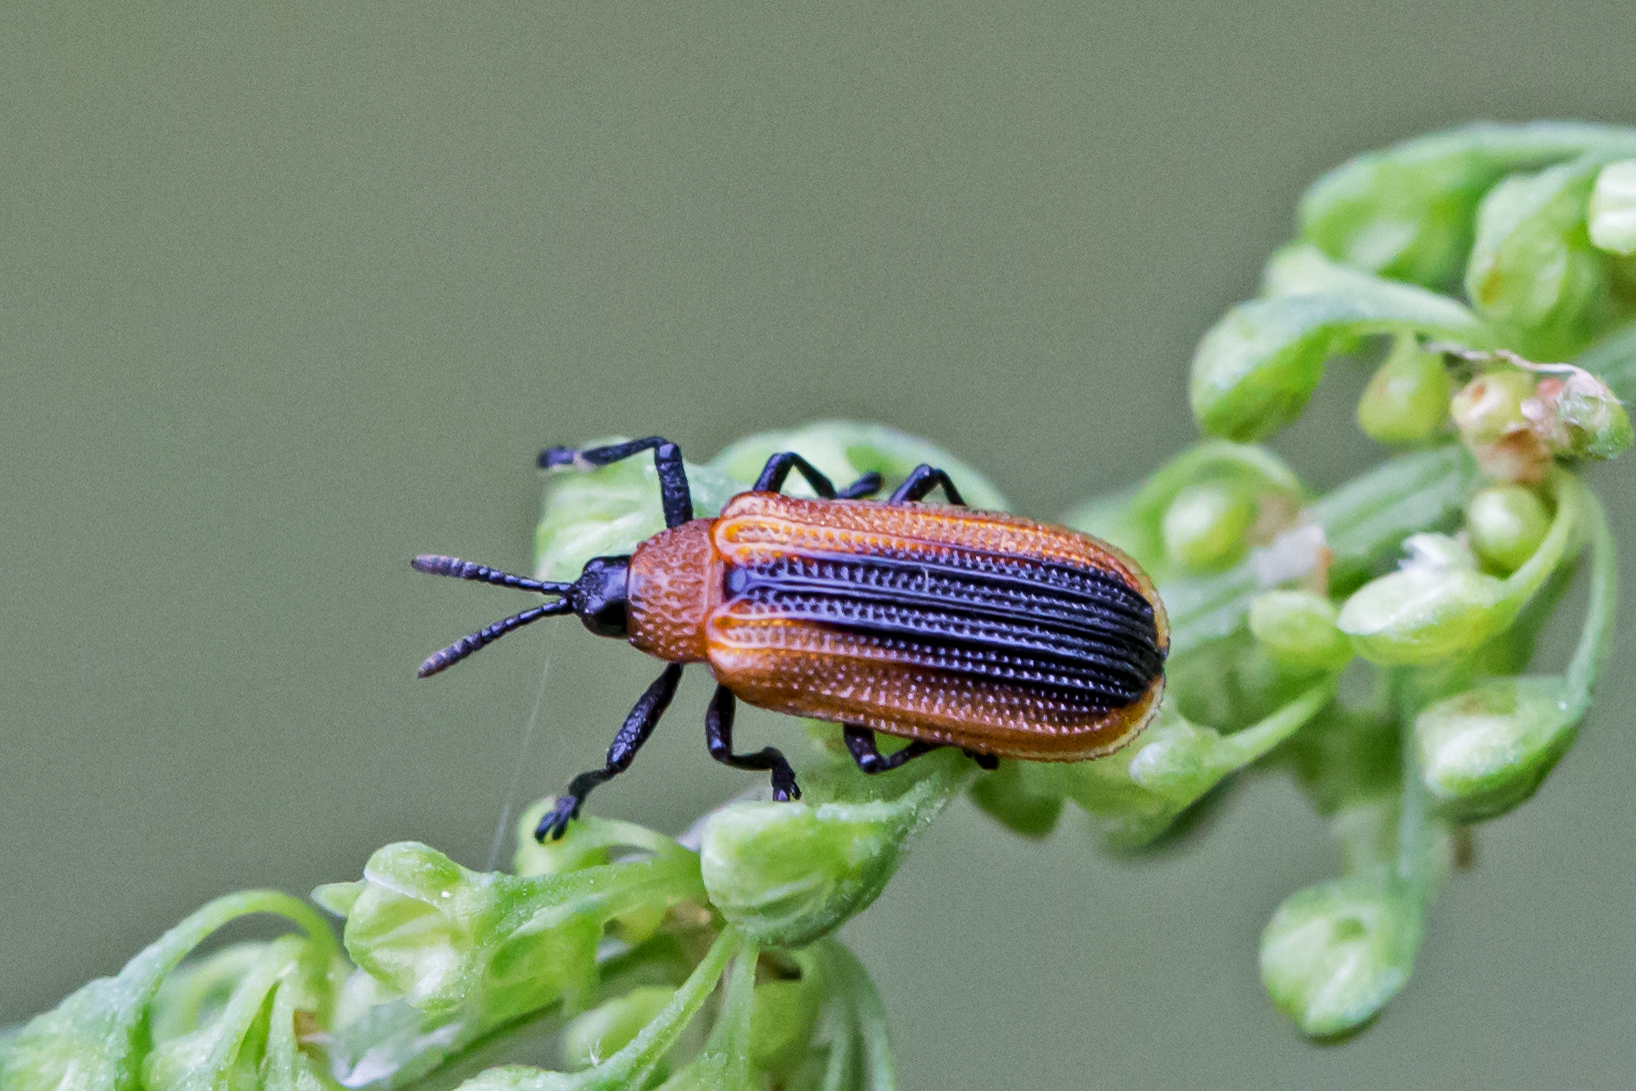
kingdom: Animalia
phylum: Arthropoda
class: Insecta
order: Coleoptera
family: Chrysomelidae
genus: Odontota
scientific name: Odontota dorsalis
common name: Locust leaf-miner beetle
